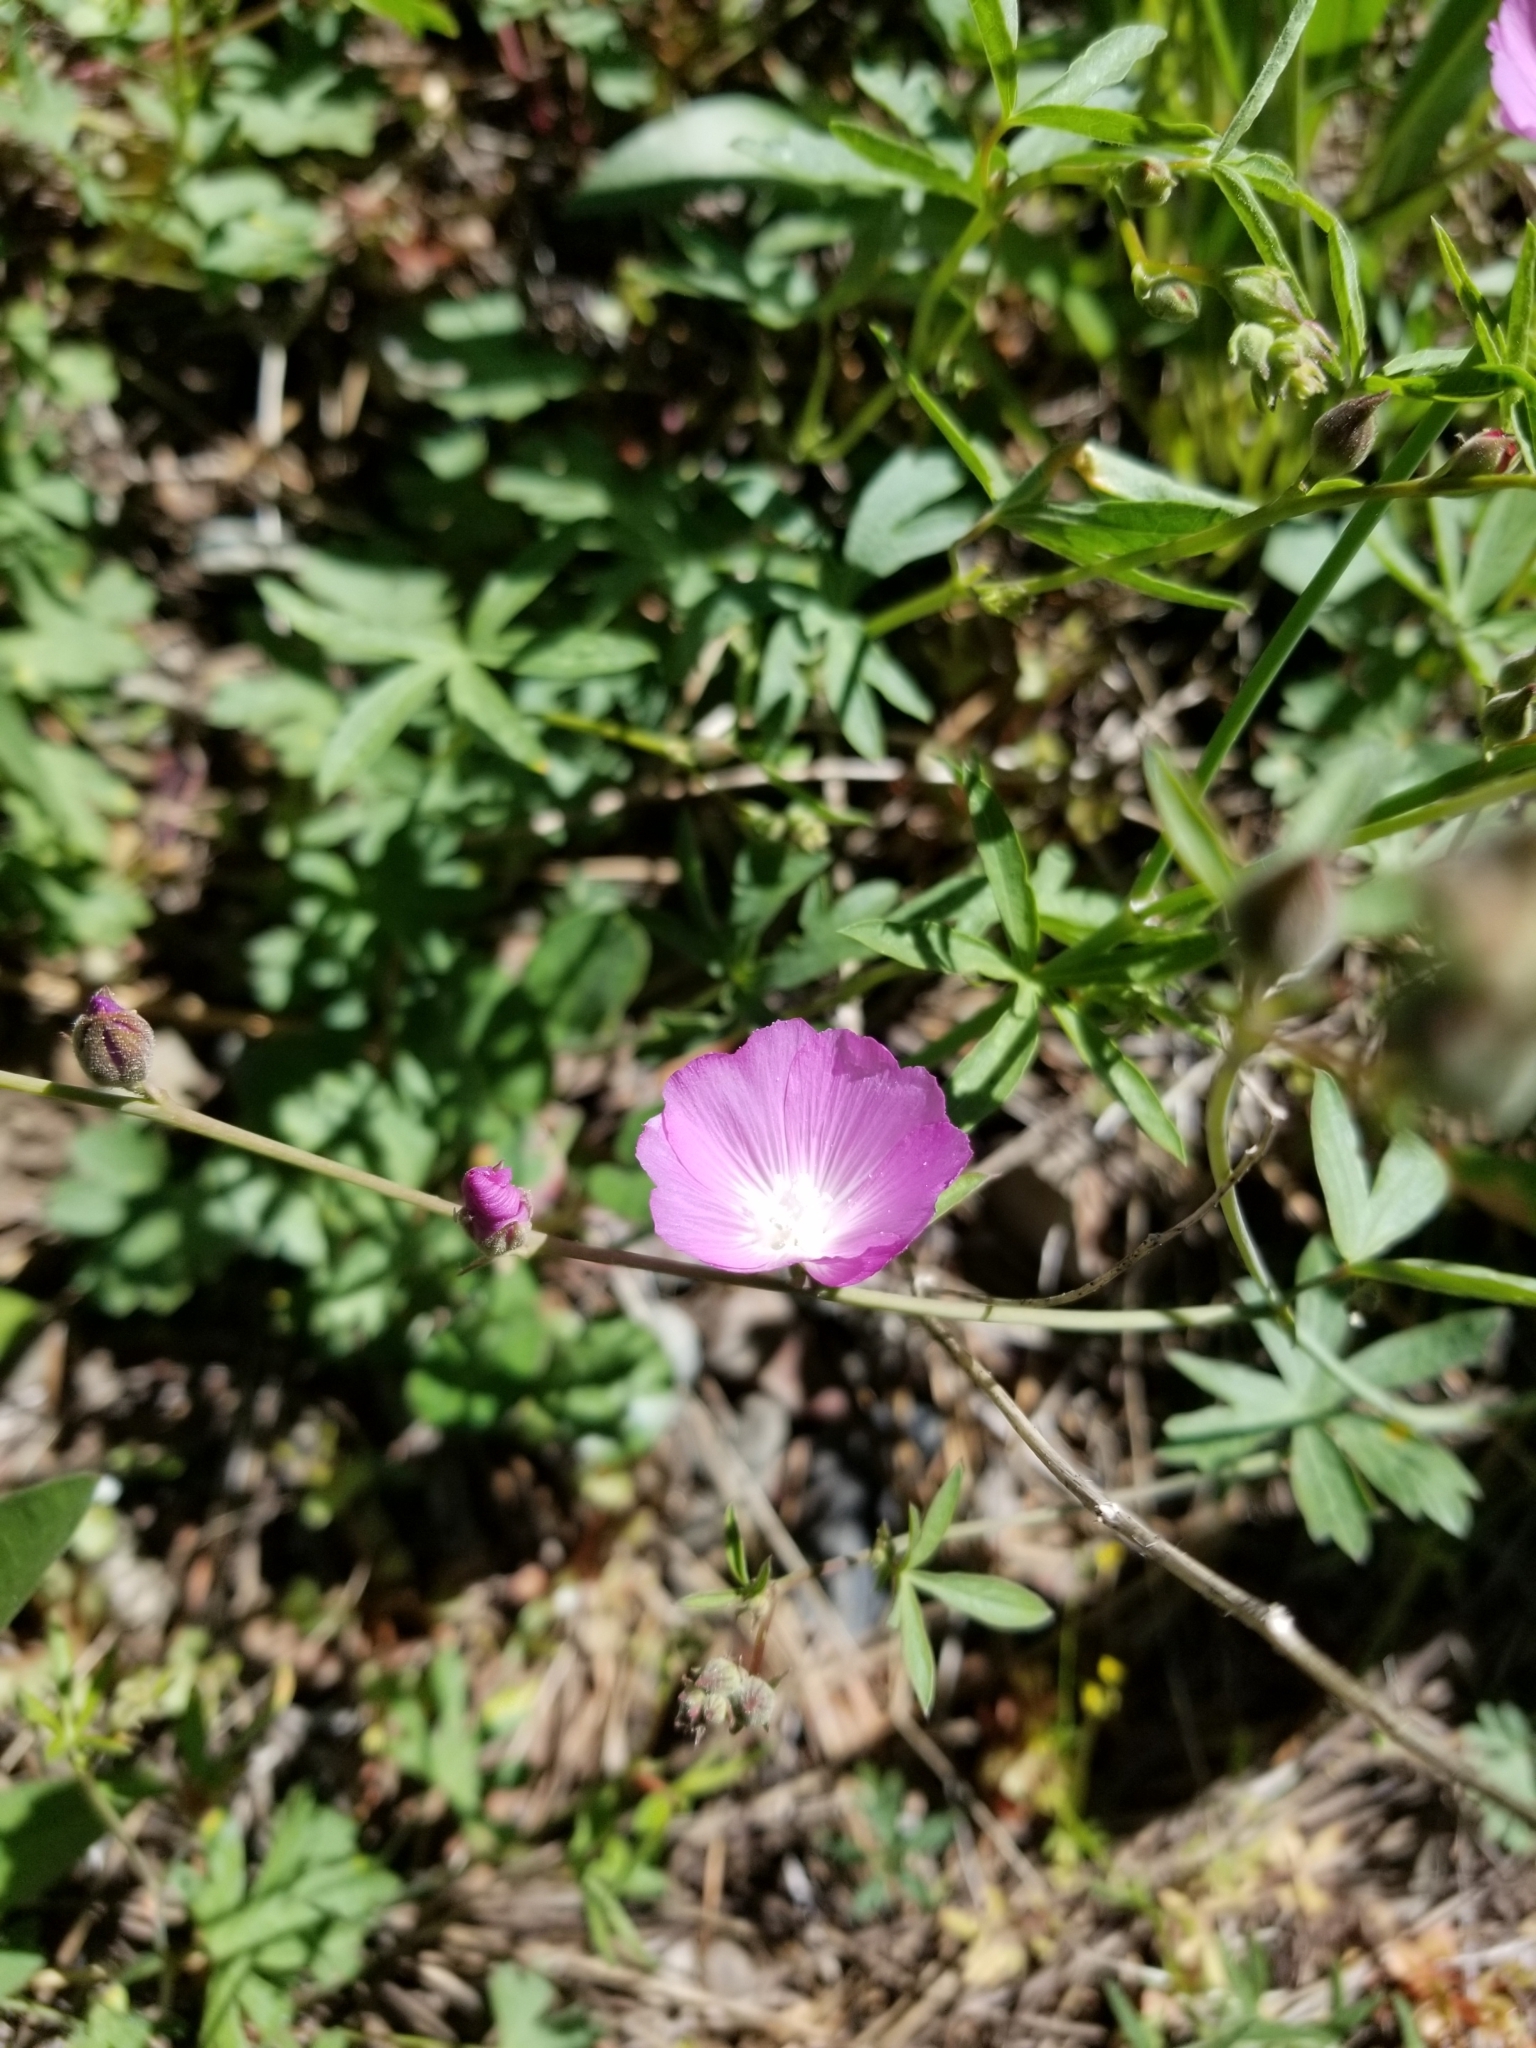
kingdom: Plantae
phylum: Tracheophyta
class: Magnoliopsida
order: Malvales
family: Malvaceae
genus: Sidalcea
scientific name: Sidalcea glaucescens
